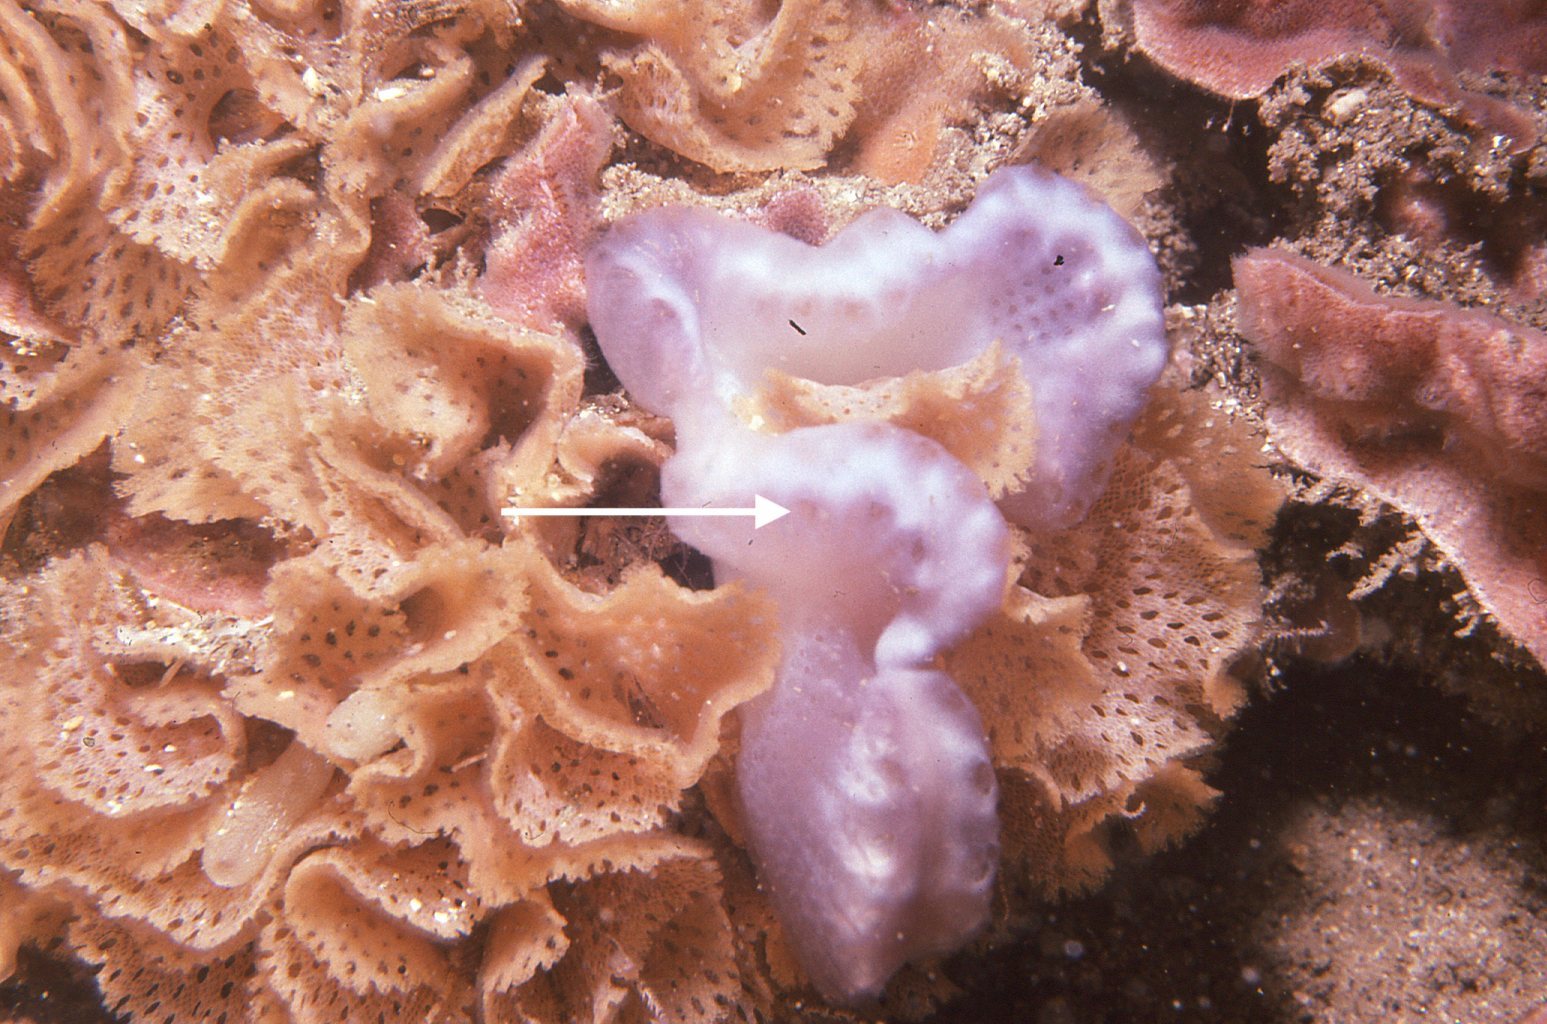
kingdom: Animalia
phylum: Chordata
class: Ascidiacea
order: Aplousobranchia
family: Holozoidae
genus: Sycozoa
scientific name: Sycozoa cerebriformis
